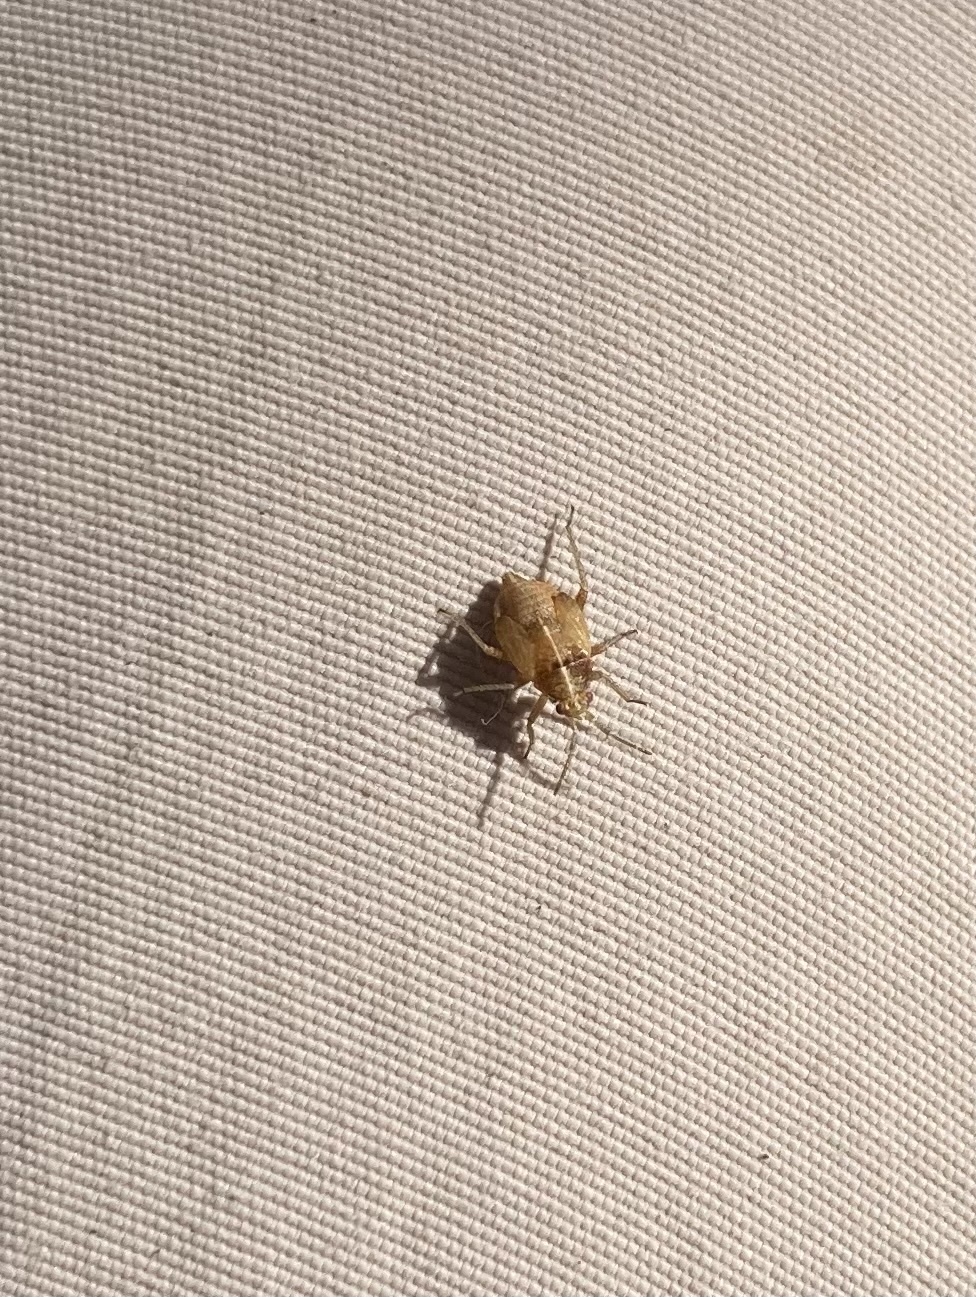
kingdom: Animalia
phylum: Arthropoda
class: Insecta
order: Hemiptera
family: Miridae
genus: Harpocera
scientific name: Harpocera thoracica
